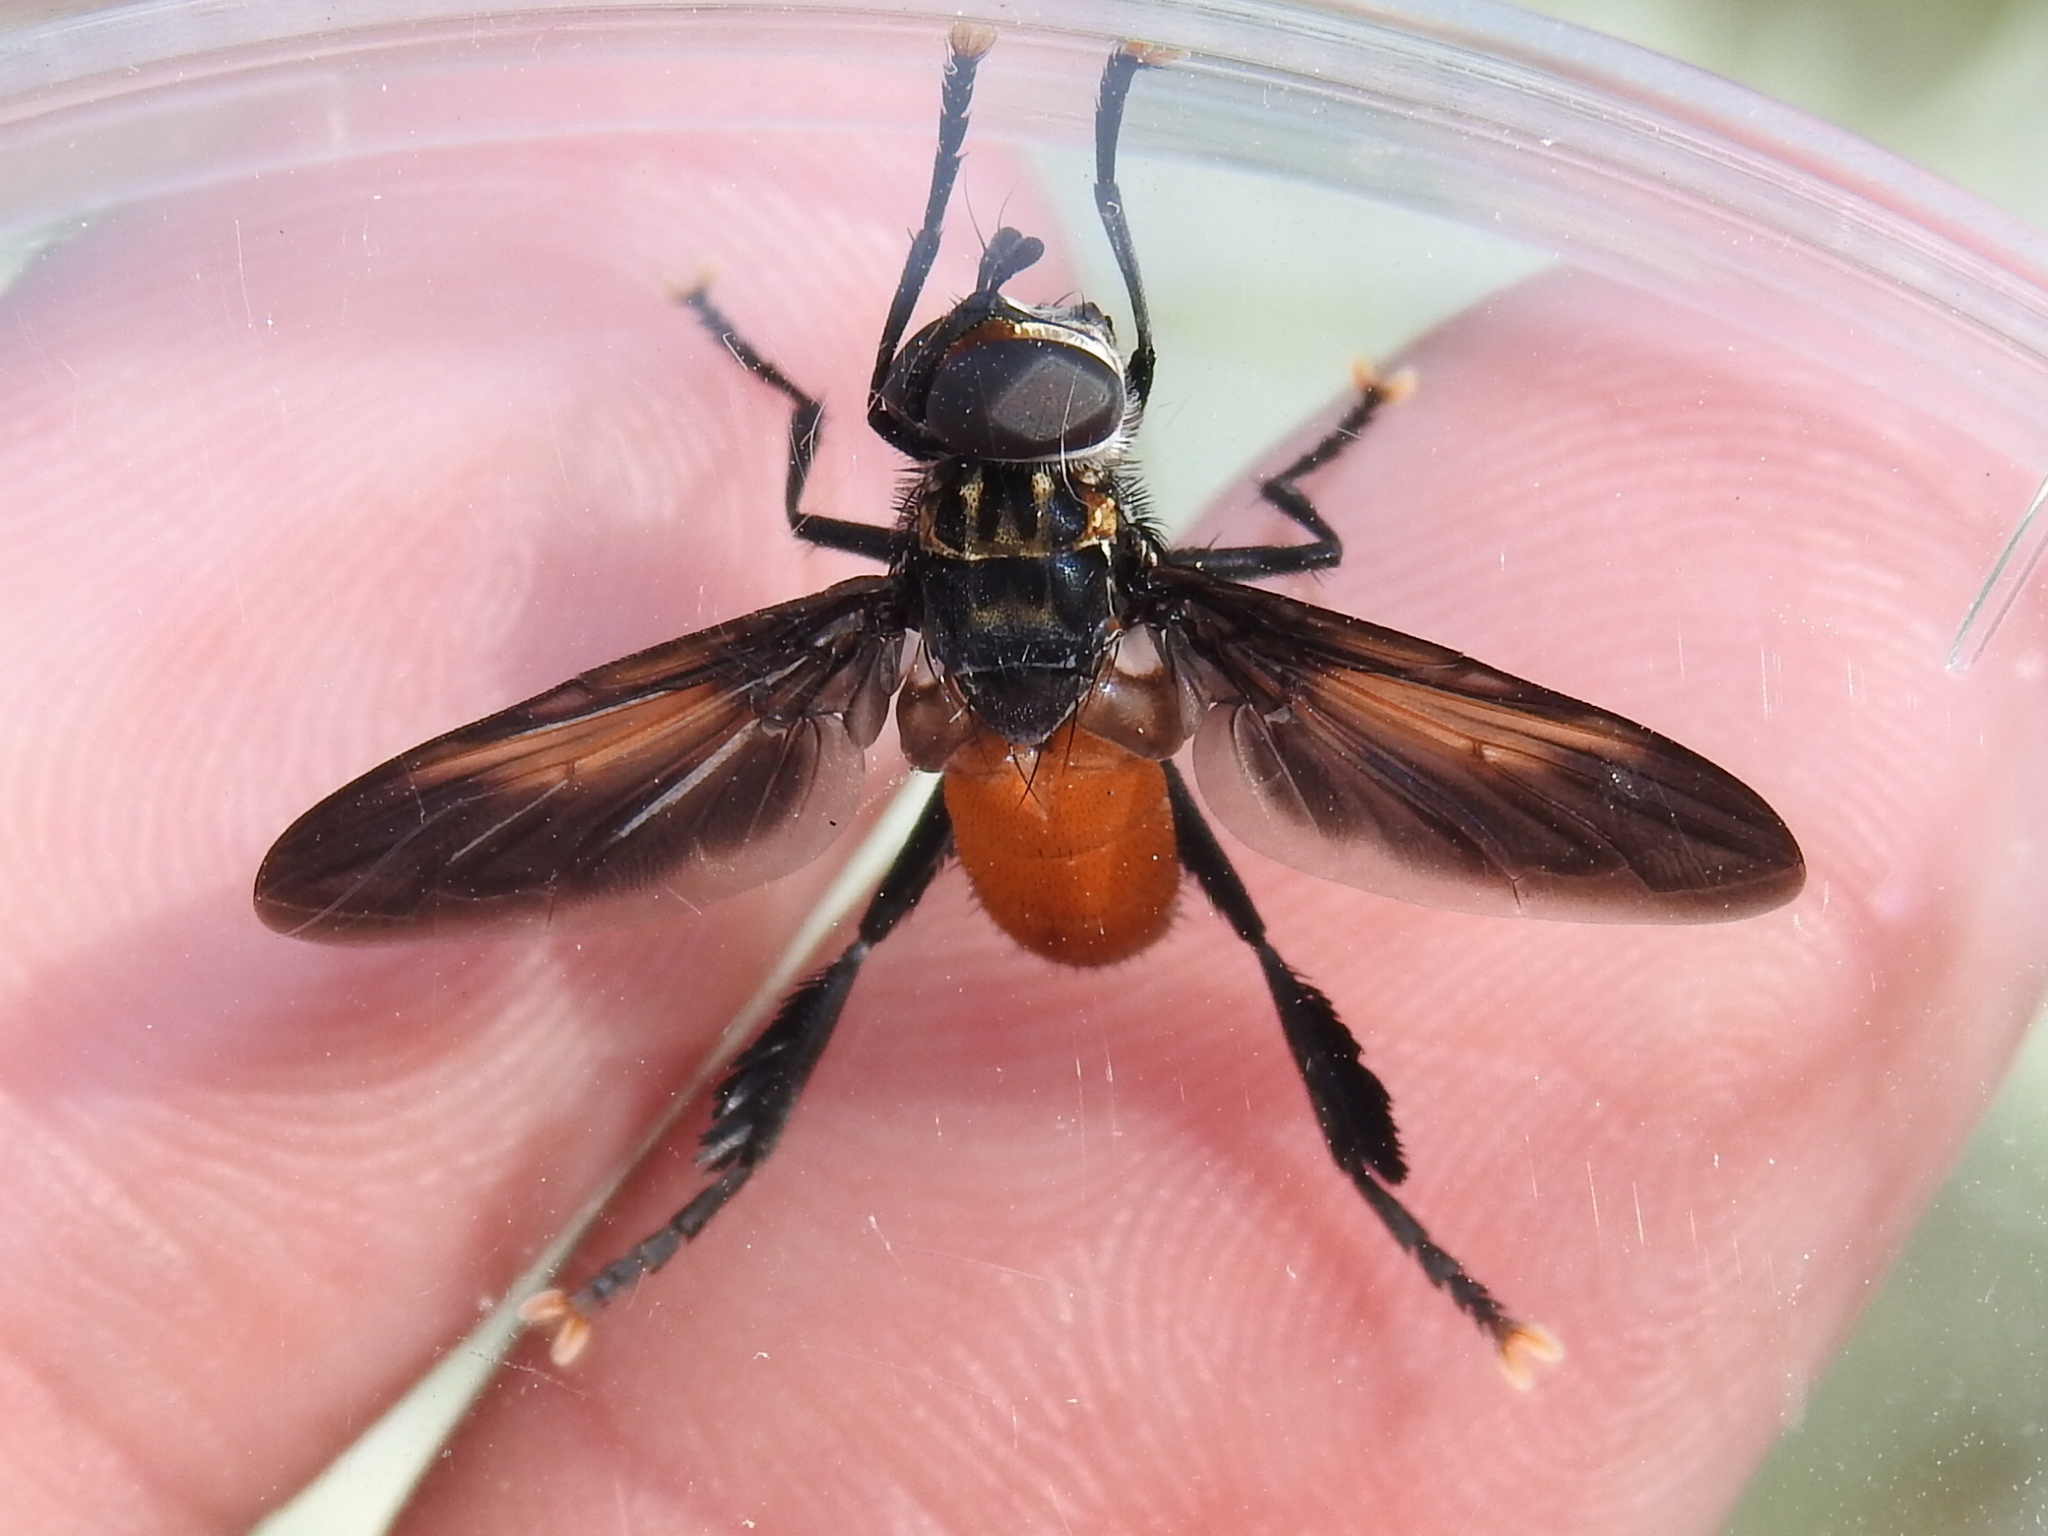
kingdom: Animalia
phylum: Arthropoda
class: Insecta
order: Diptera
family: Tachinidae
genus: Trichopoda
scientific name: Trichopoda pennipes
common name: Tachinid fly
